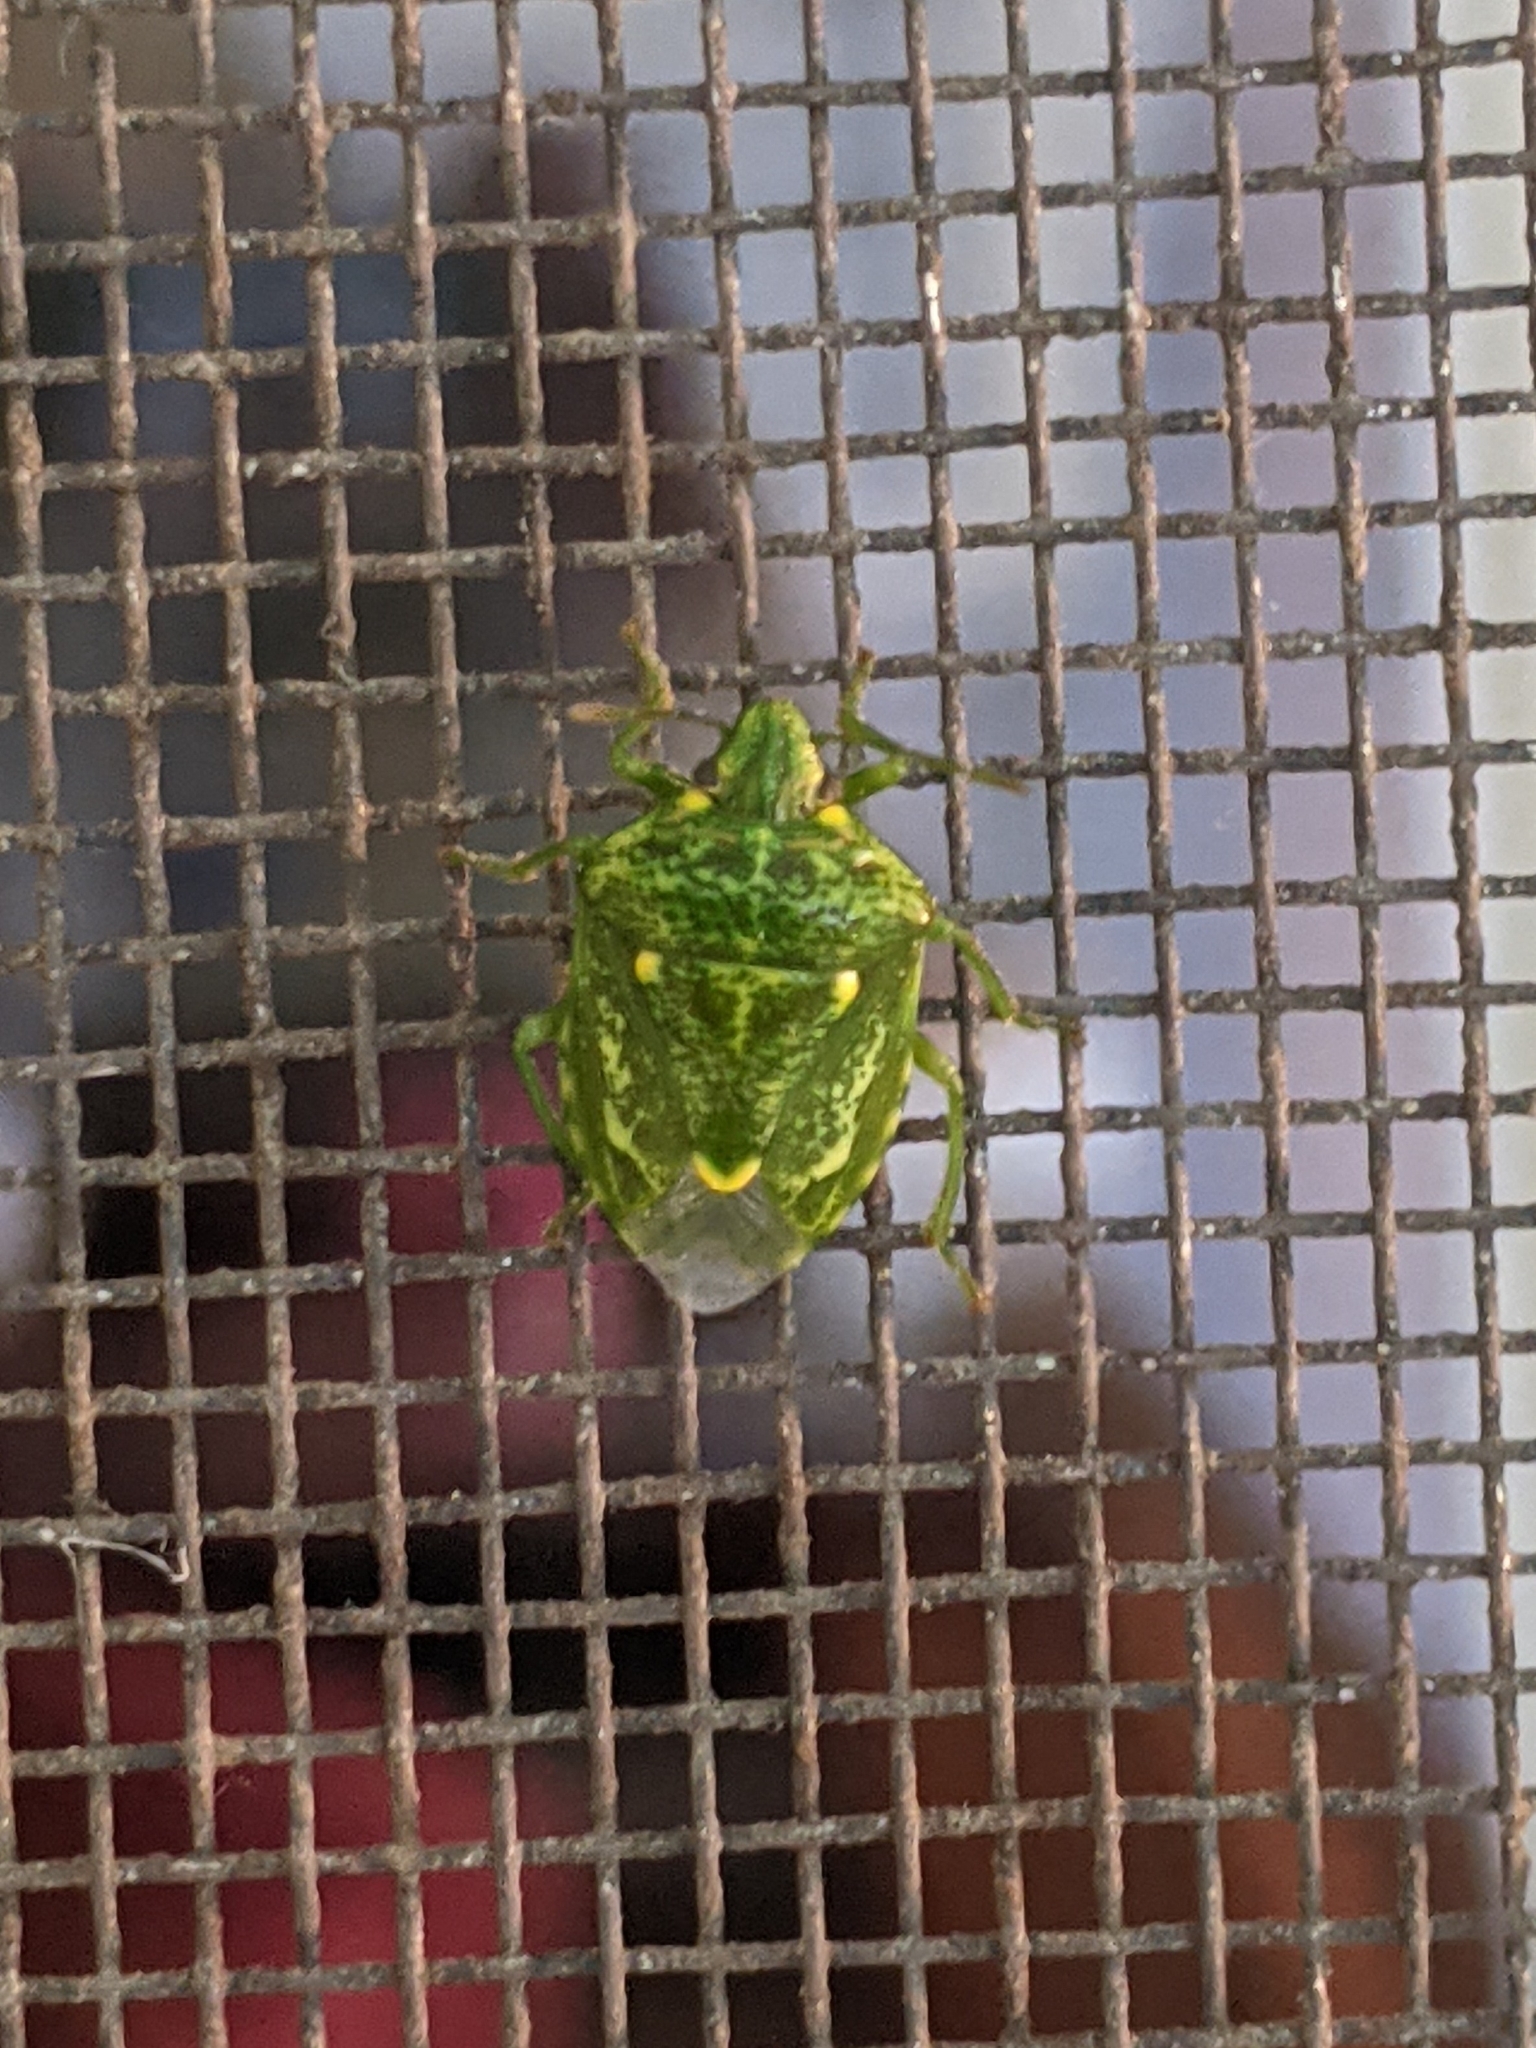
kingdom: Animalia
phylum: Arthropoda
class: Insecta
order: Hemiptera
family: Pentatomidae
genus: Banasa
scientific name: Banasa euchlora
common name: Cedar berry bug
